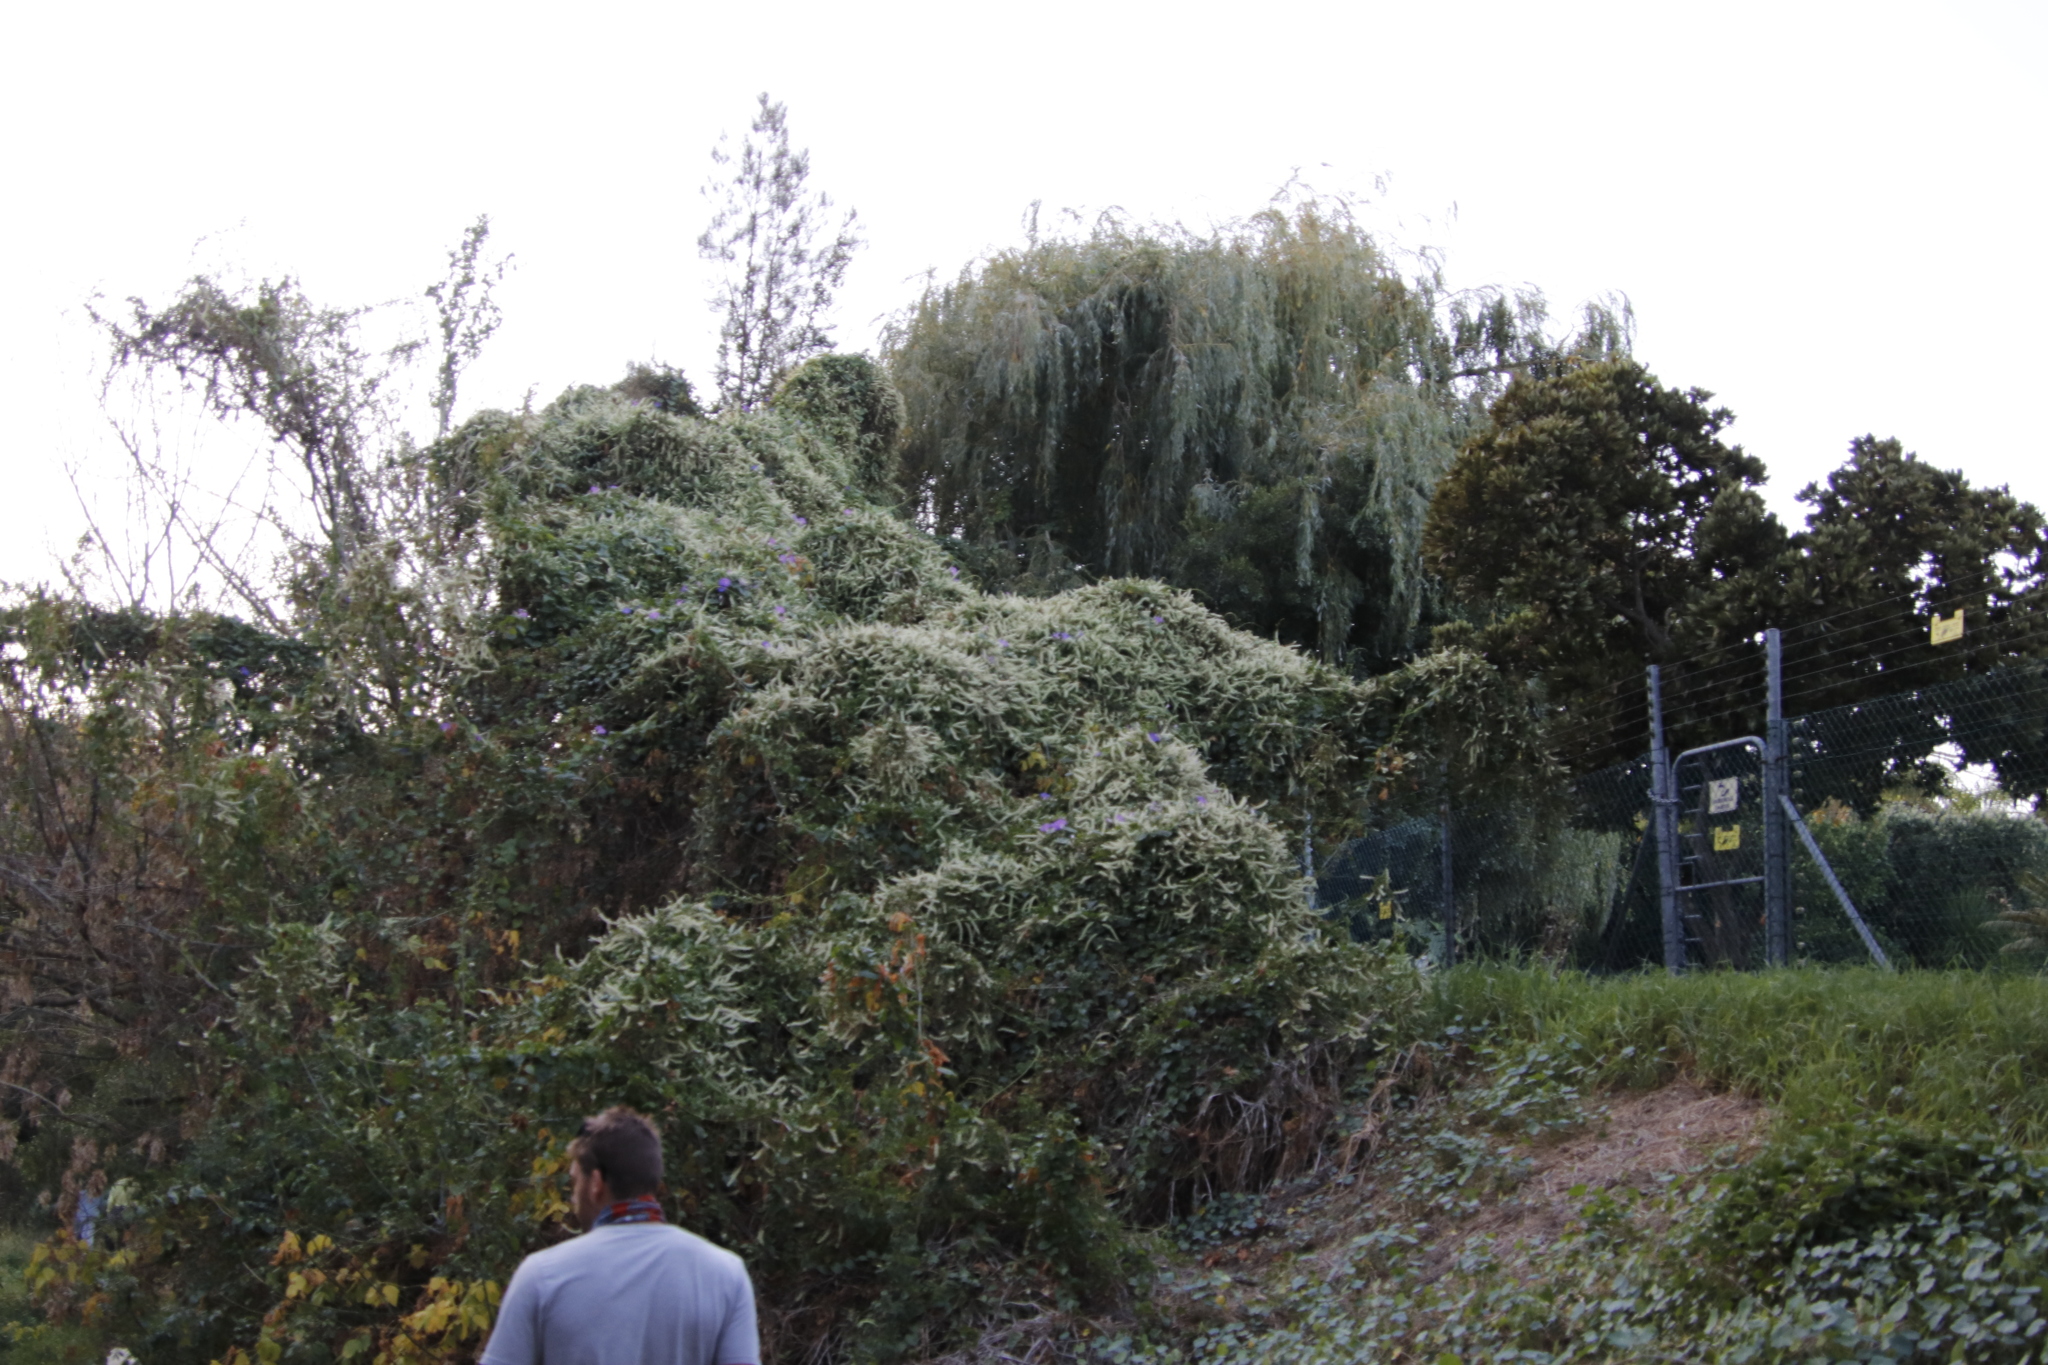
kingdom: Plantae
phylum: Tracheophyta
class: Magnoliopsida
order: Caryophyllales
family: Basellaceae
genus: Anredera
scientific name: Anredera cordifolia
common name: Heartleaf madeiravine
